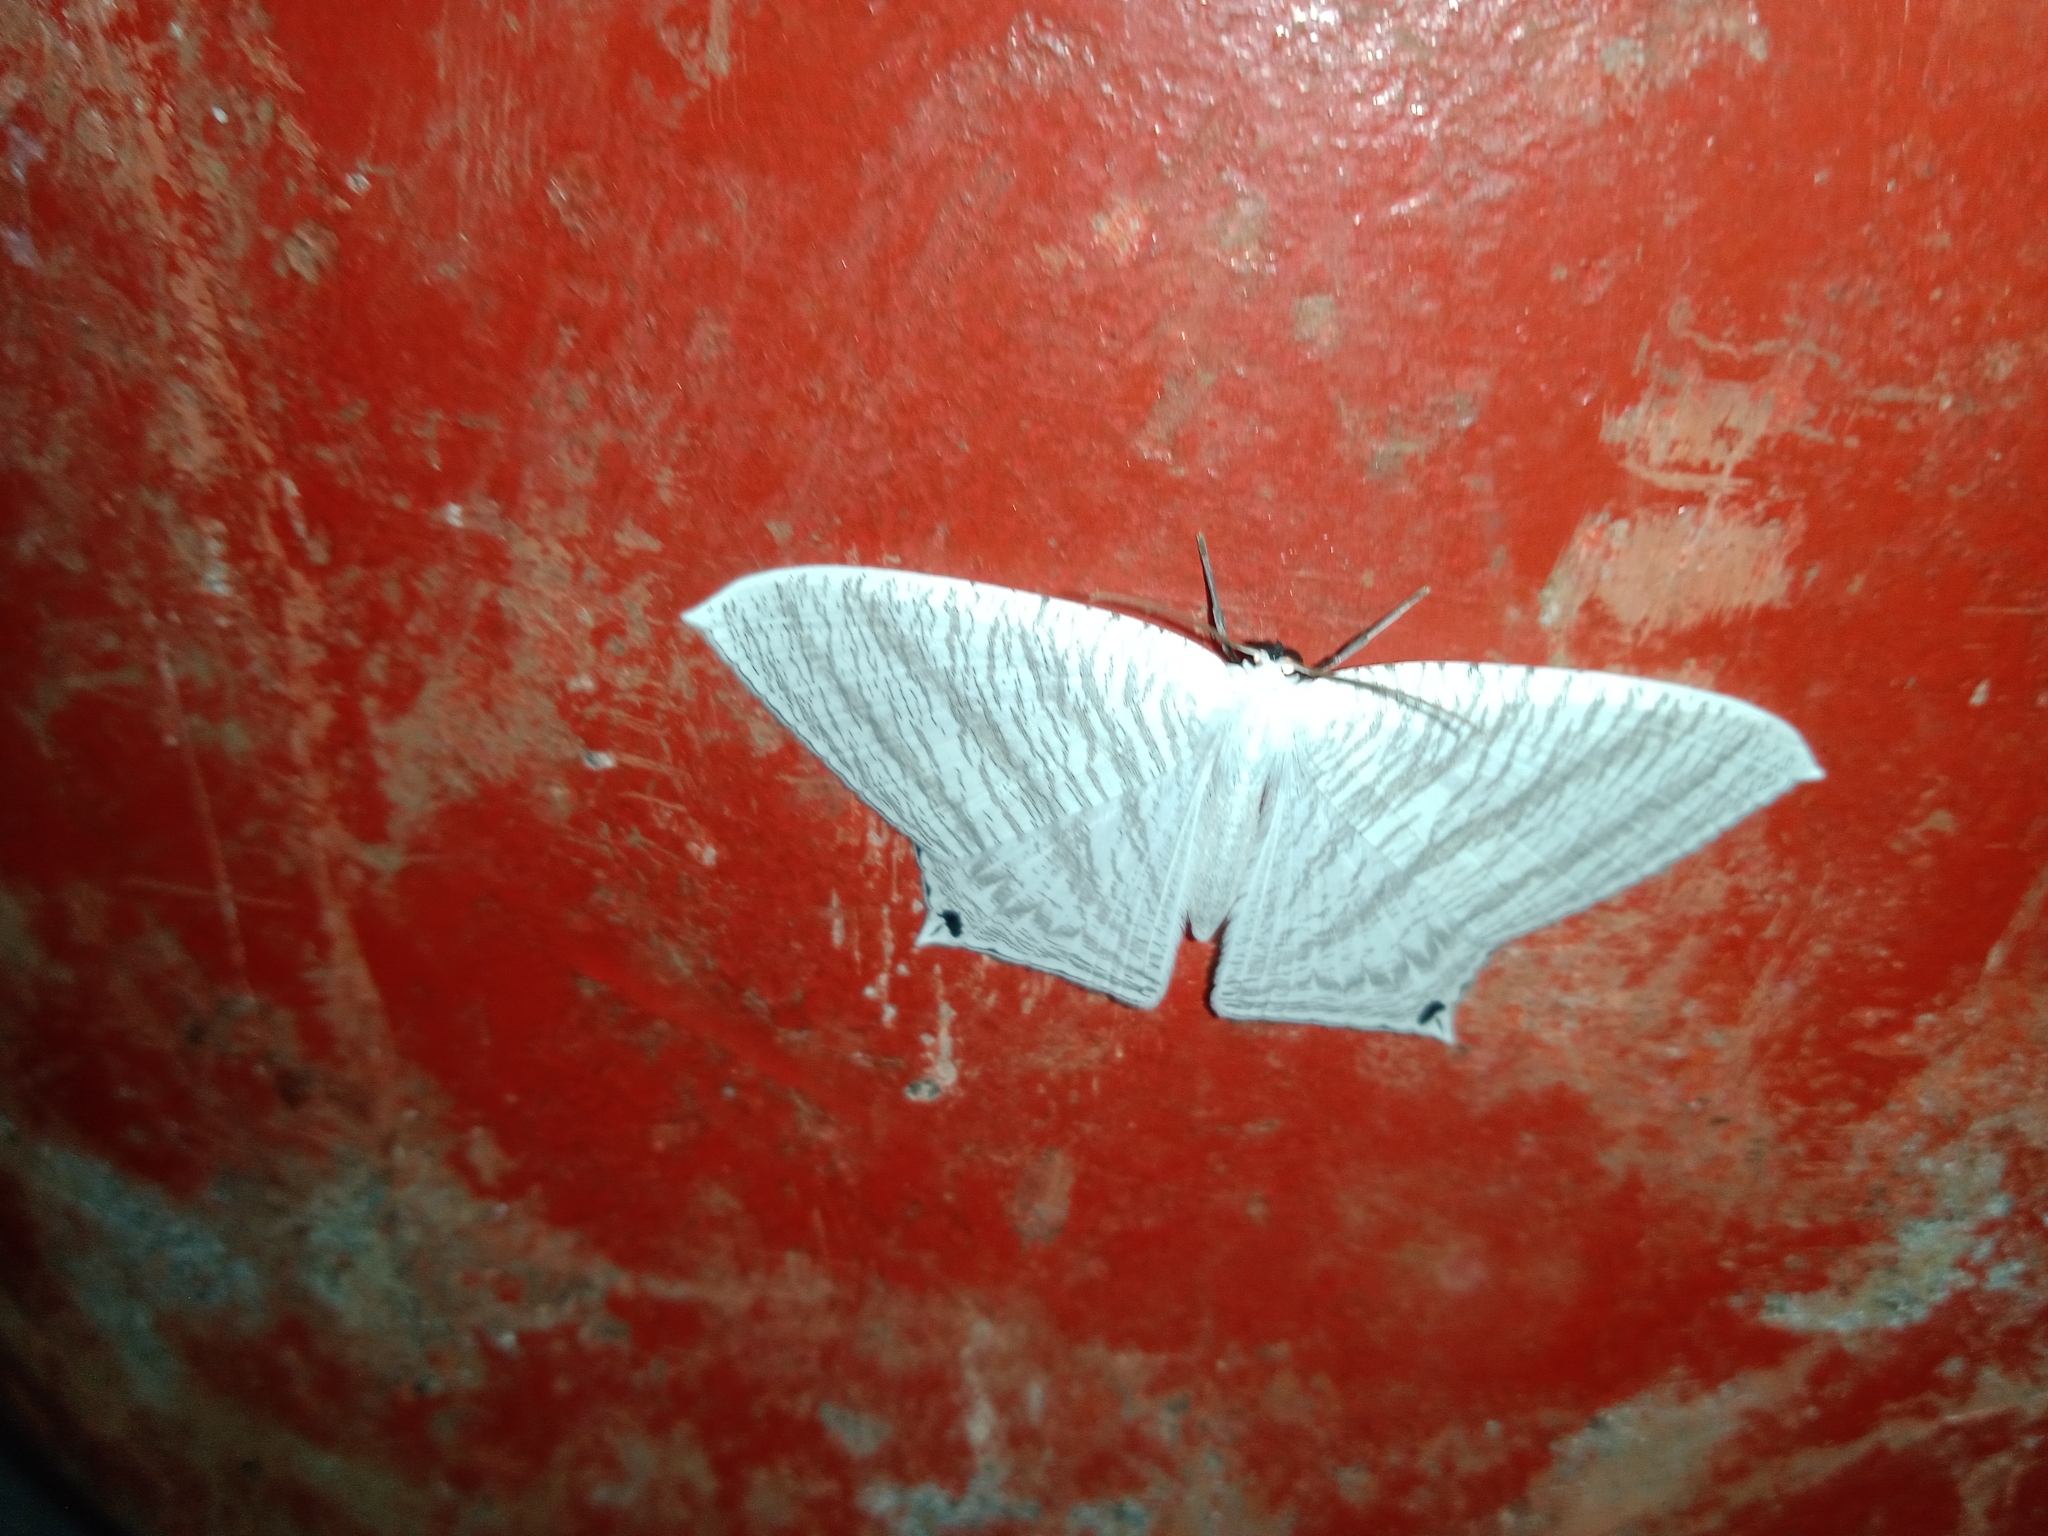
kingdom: Animalia
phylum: Arthropoda
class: Insecta
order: Lepidoptera
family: Uraniidae
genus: Micronia
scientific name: Micronia aculeata
